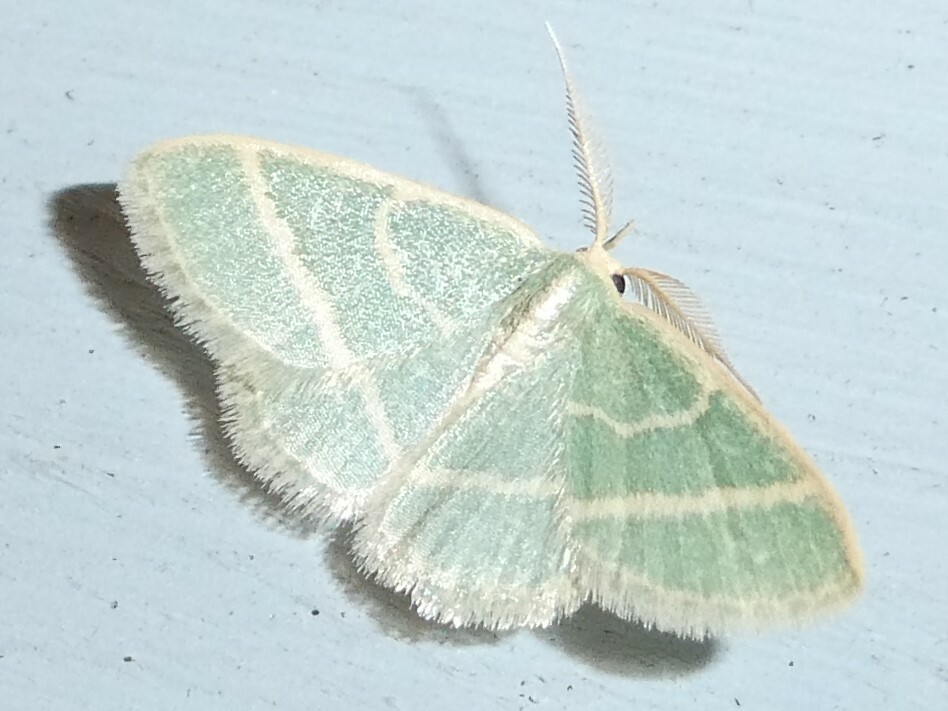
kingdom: Animalia
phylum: Arthropoda
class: Insecta
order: Lepidoptera
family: Geometridae
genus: Chlorochlamys
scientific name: Chlorochlamys chloroleucaria
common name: Blackberry looper
